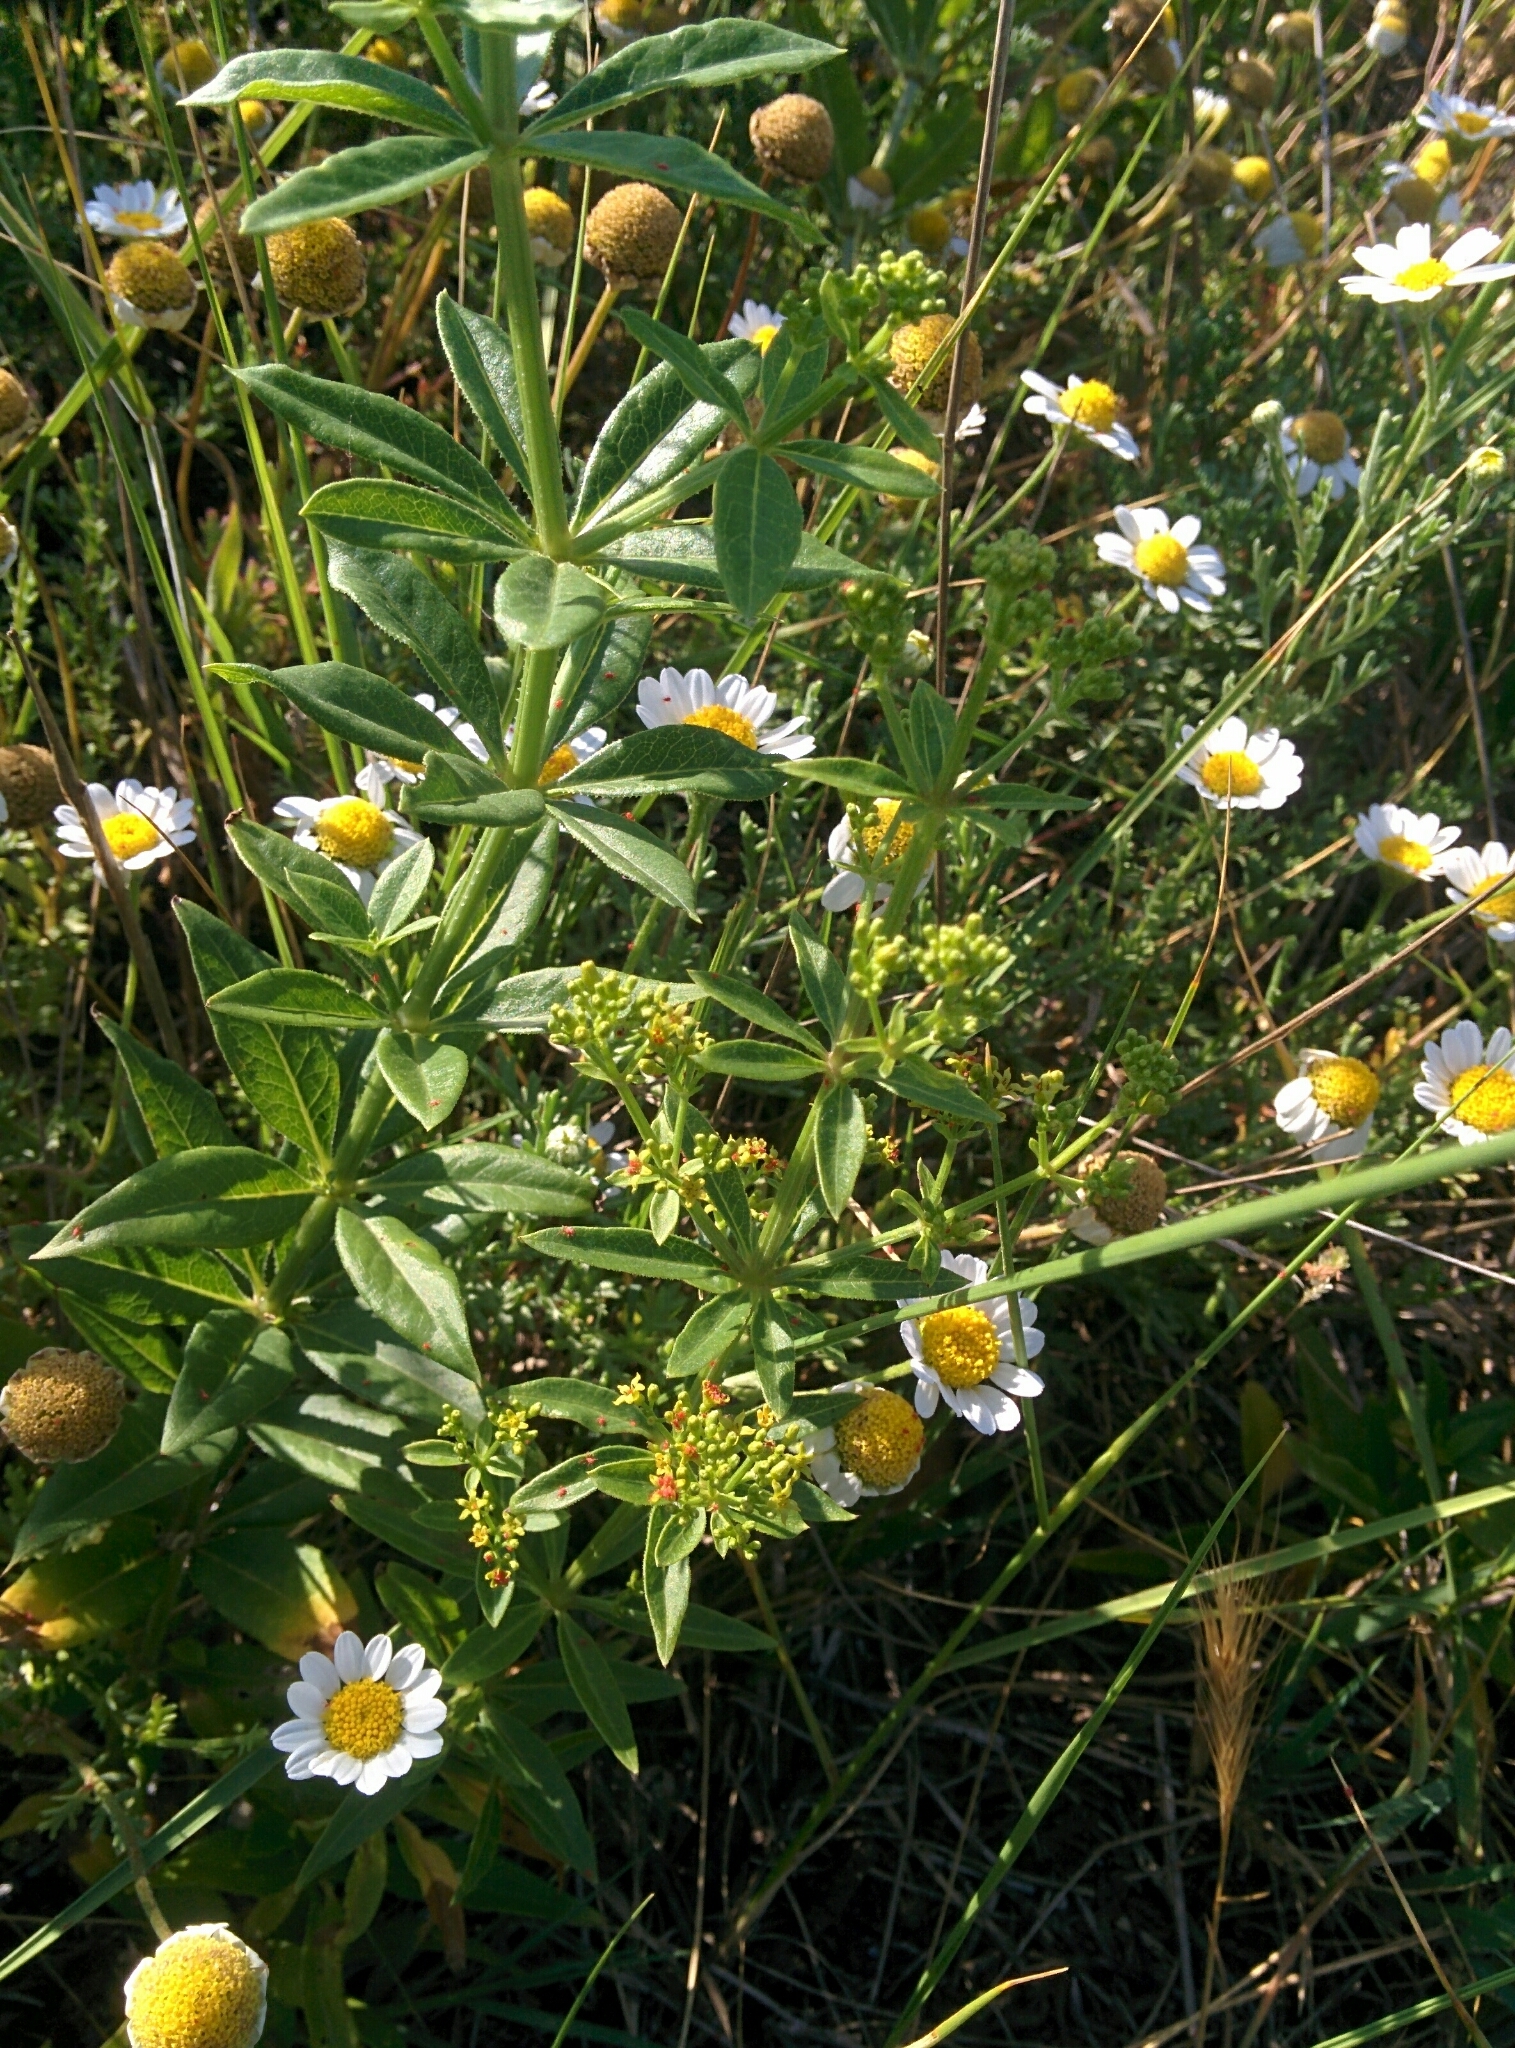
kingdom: Plantae
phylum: Tracheophyta
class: Magnoliopsida
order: Gentianales
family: Rubiaceae
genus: Rubia
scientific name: Rubia tinctorum
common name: Dyer's madder
